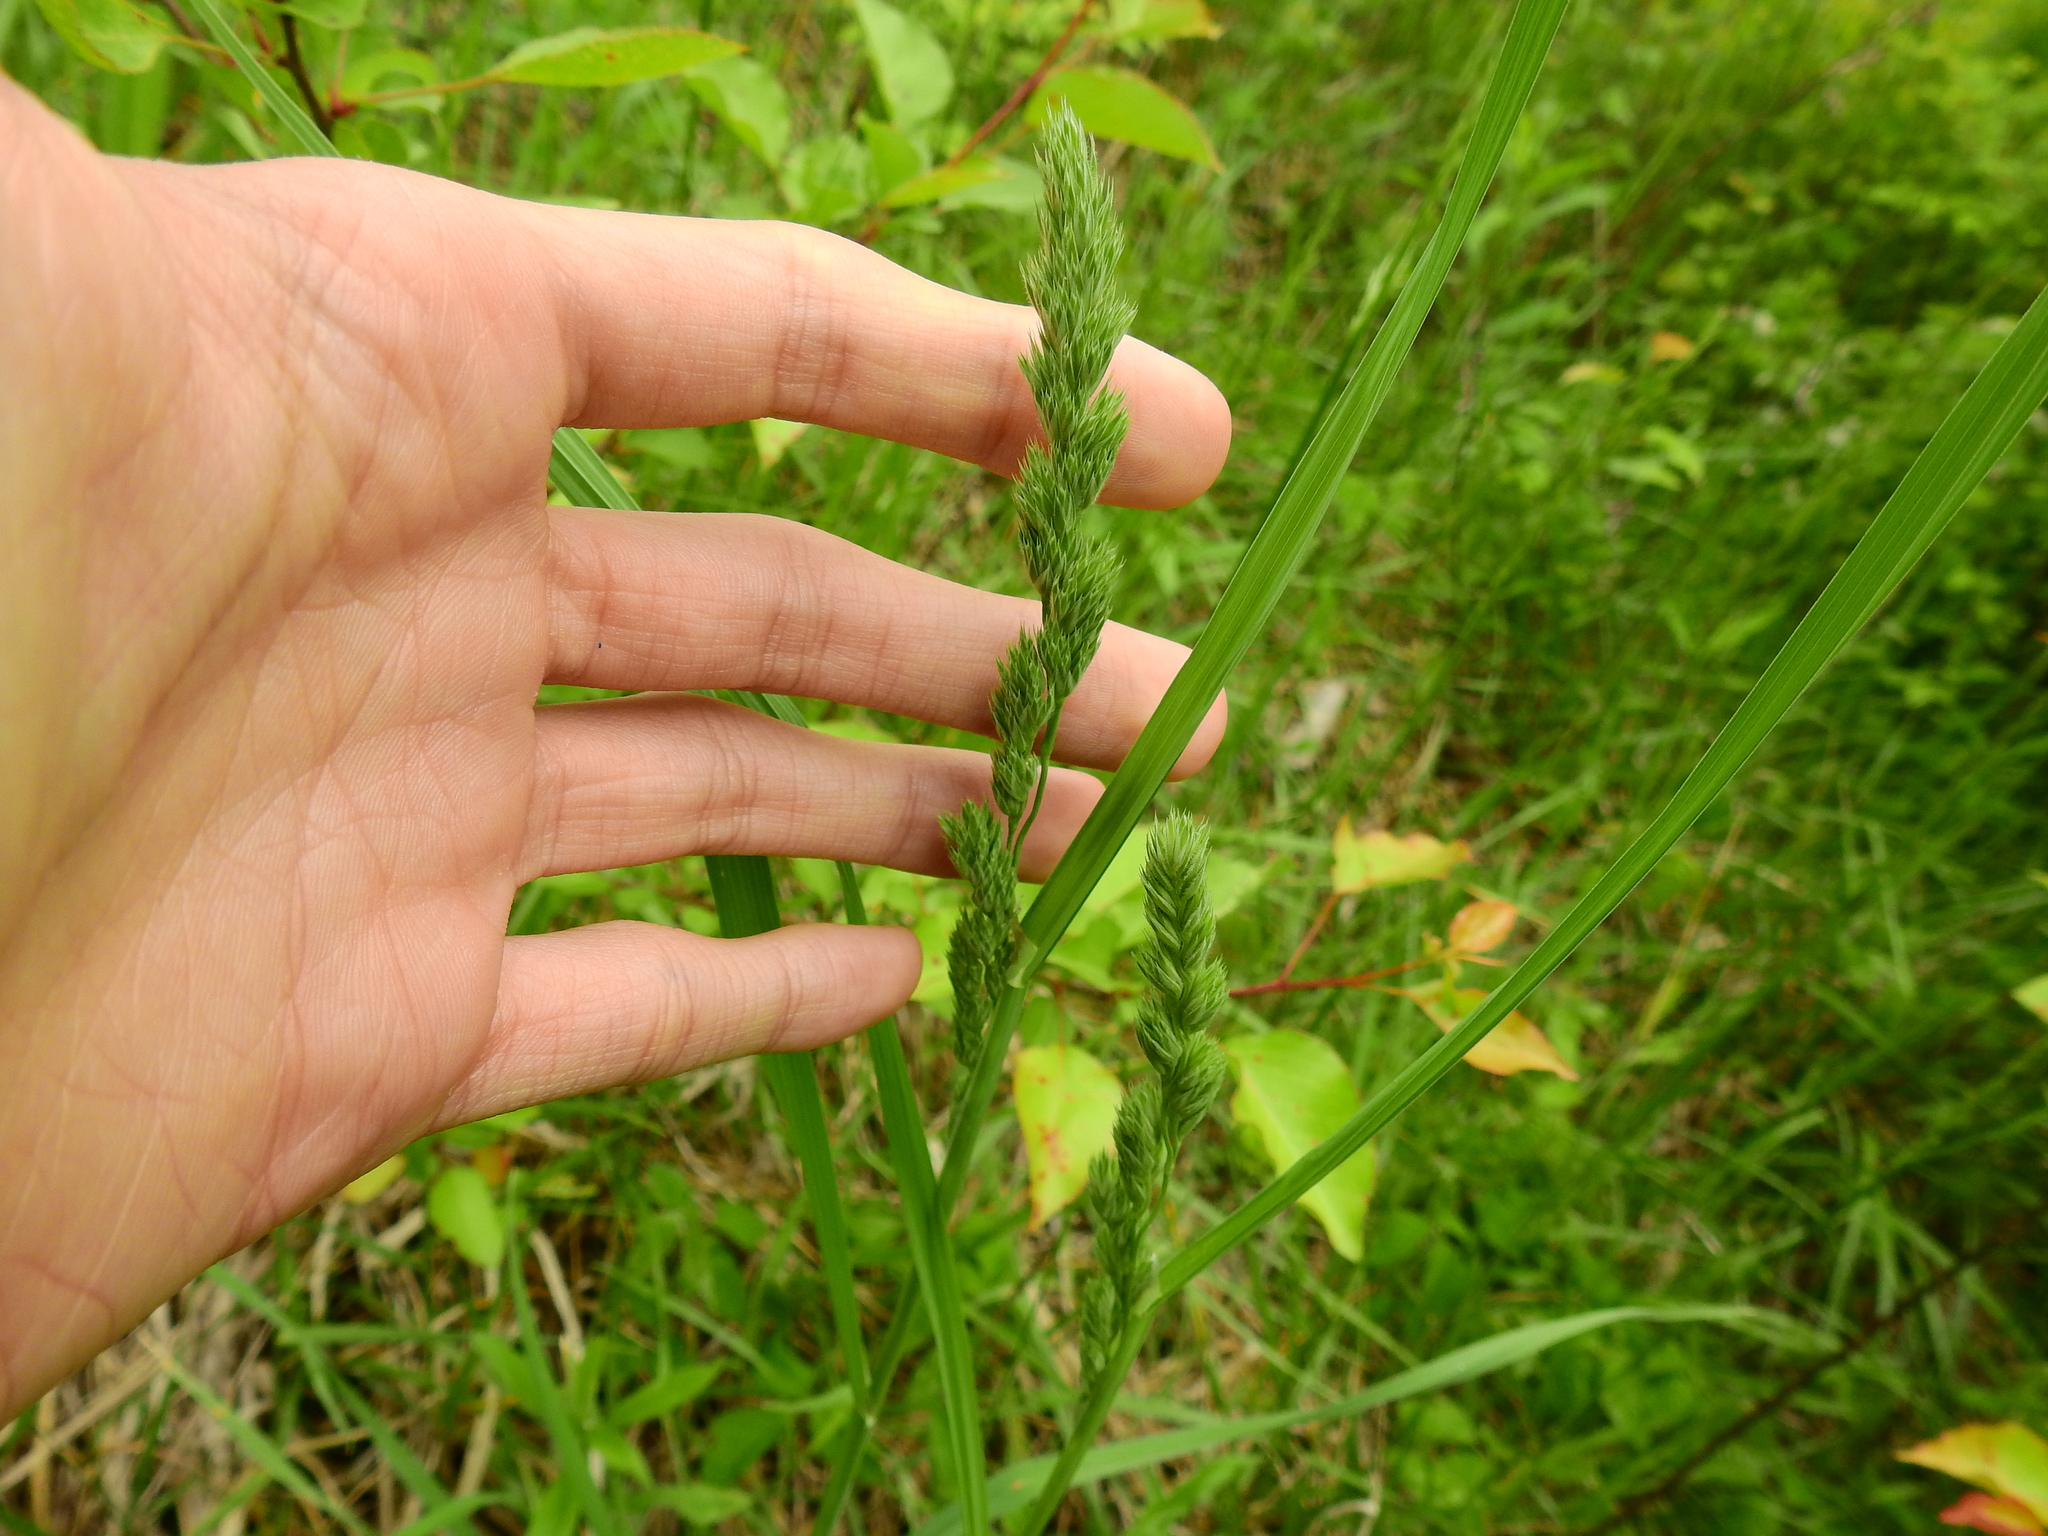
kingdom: Plantae
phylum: Tracheophyta
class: Liliopsida
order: Poales
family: Poaceae
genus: Dactylis
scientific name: Dactylis glomerata
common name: Orchardgrass
